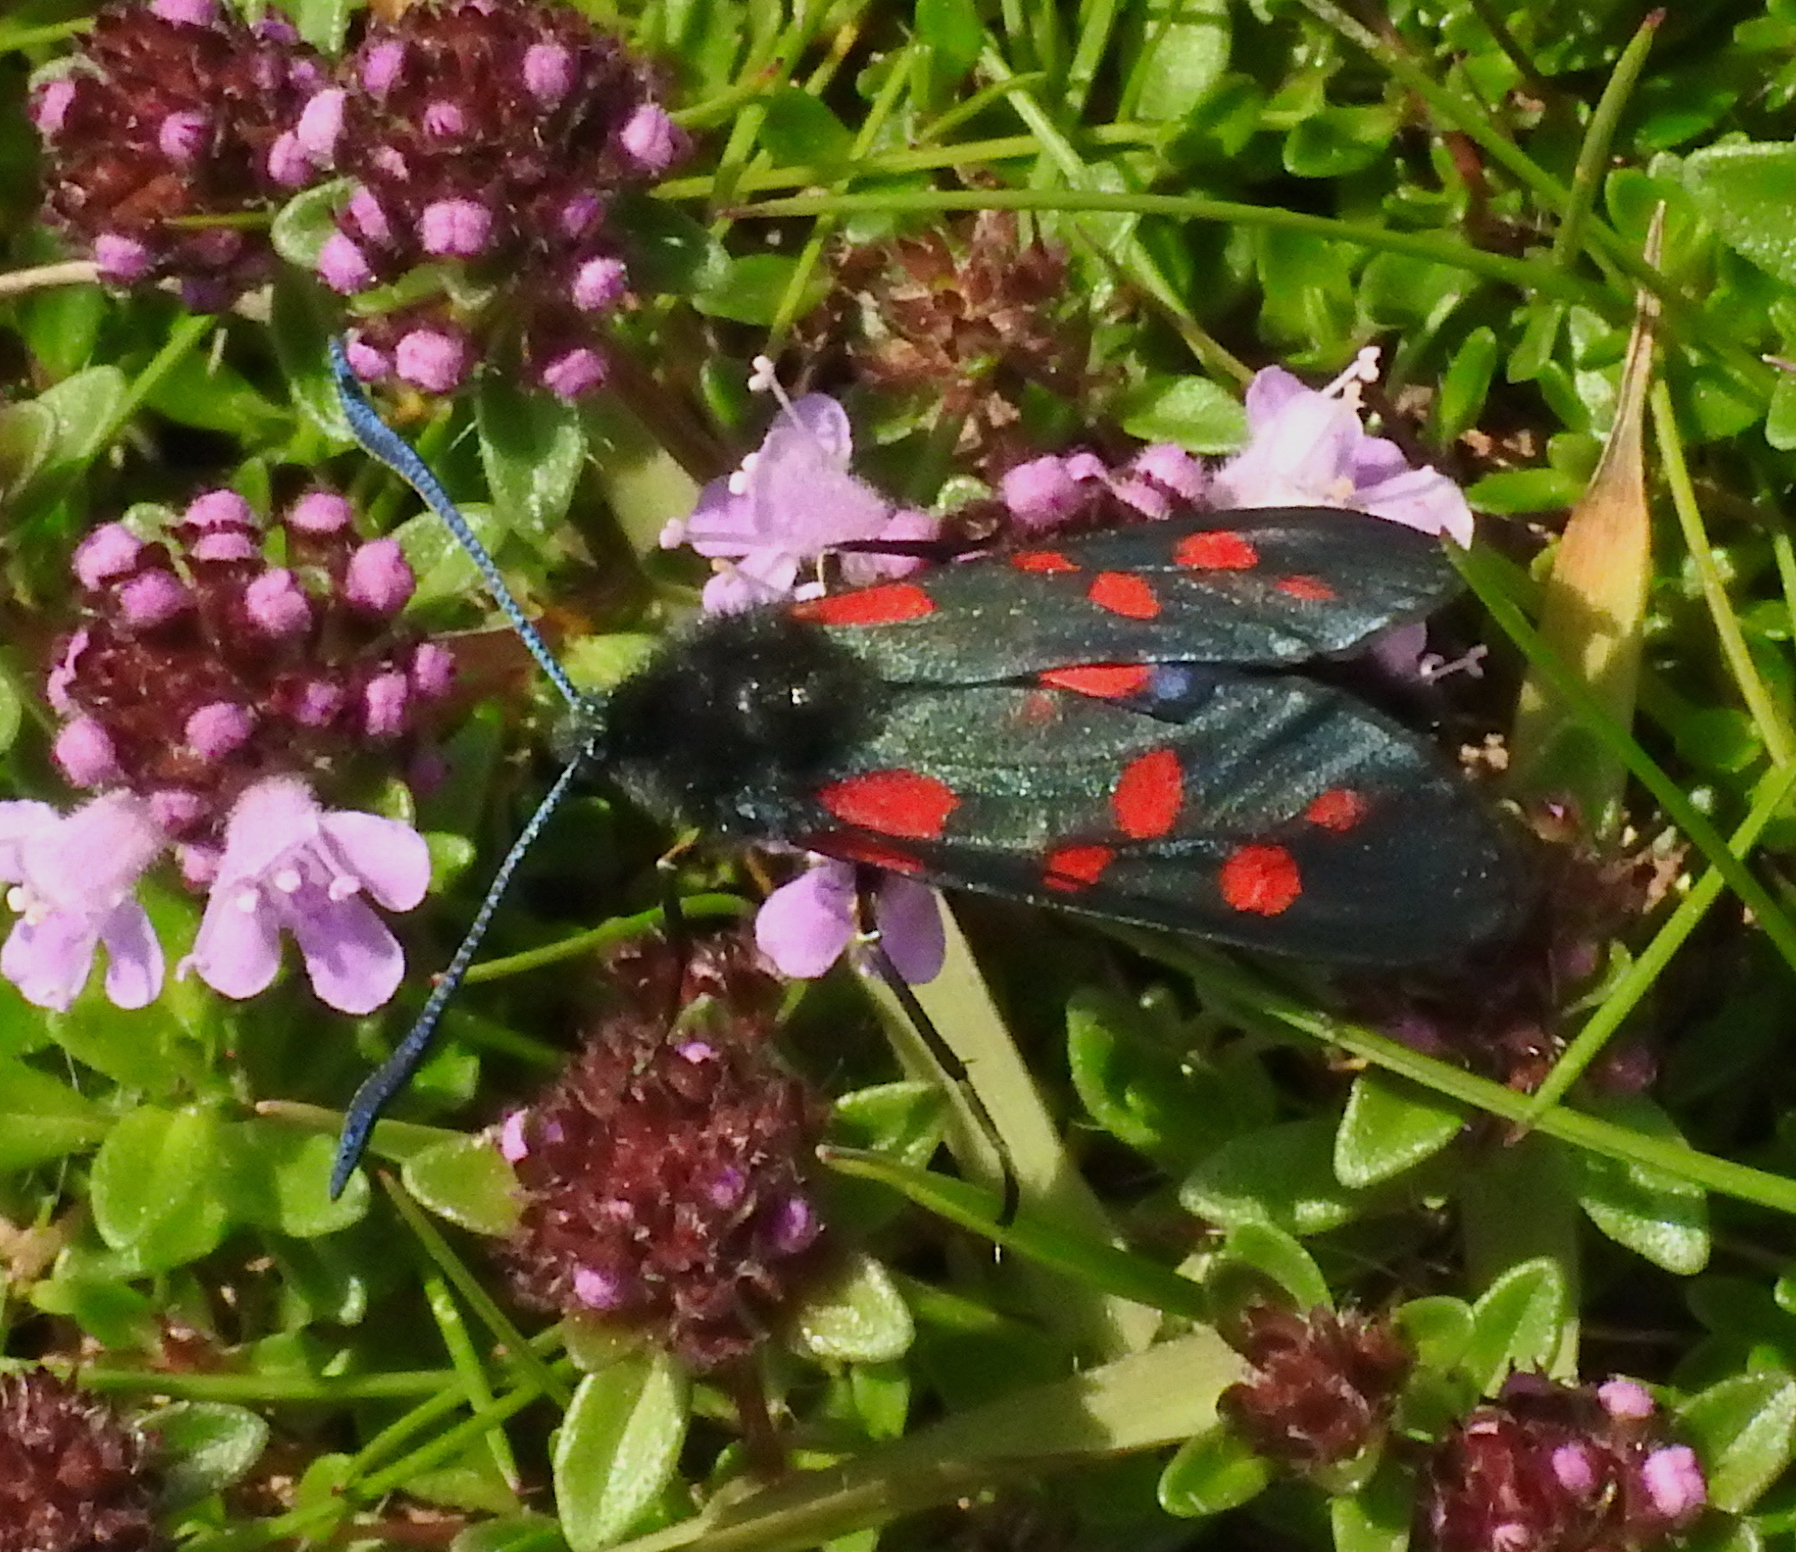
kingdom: Animalia
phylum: Arthropoda
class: Insecta
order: Lepidoptera
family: Zygaenidae
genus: Zygaena
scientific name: Zygaena filipendulae
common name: Six-spot burnet
